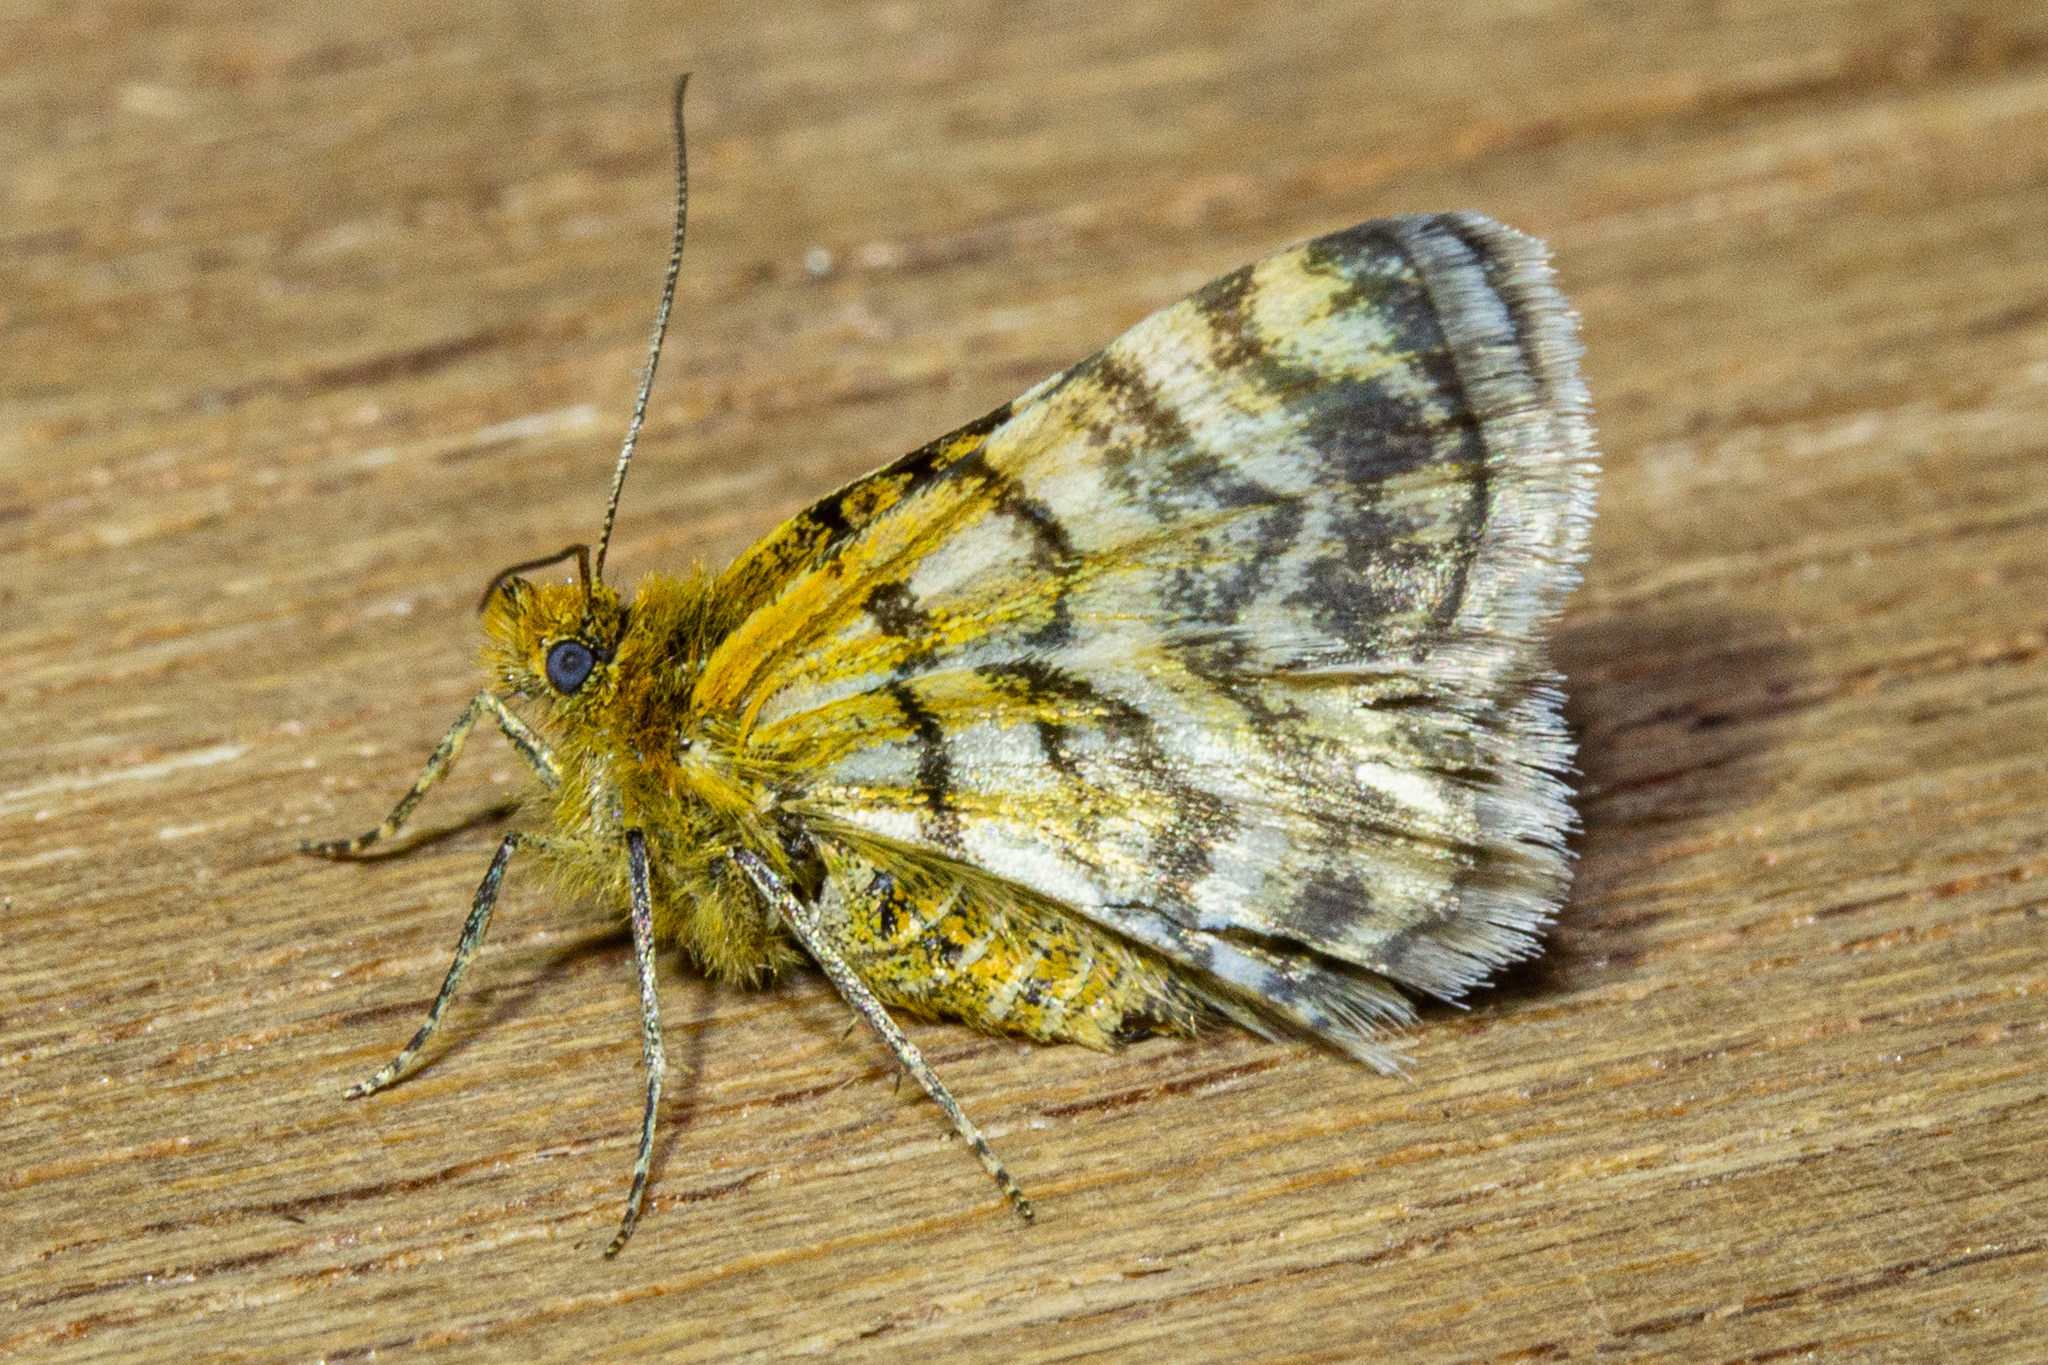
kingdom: Animalia
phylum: Arthropoda
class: Insecta
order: Lepidoptera
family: Geometridae
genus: Notoreas
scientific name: Notoreas chioneres
